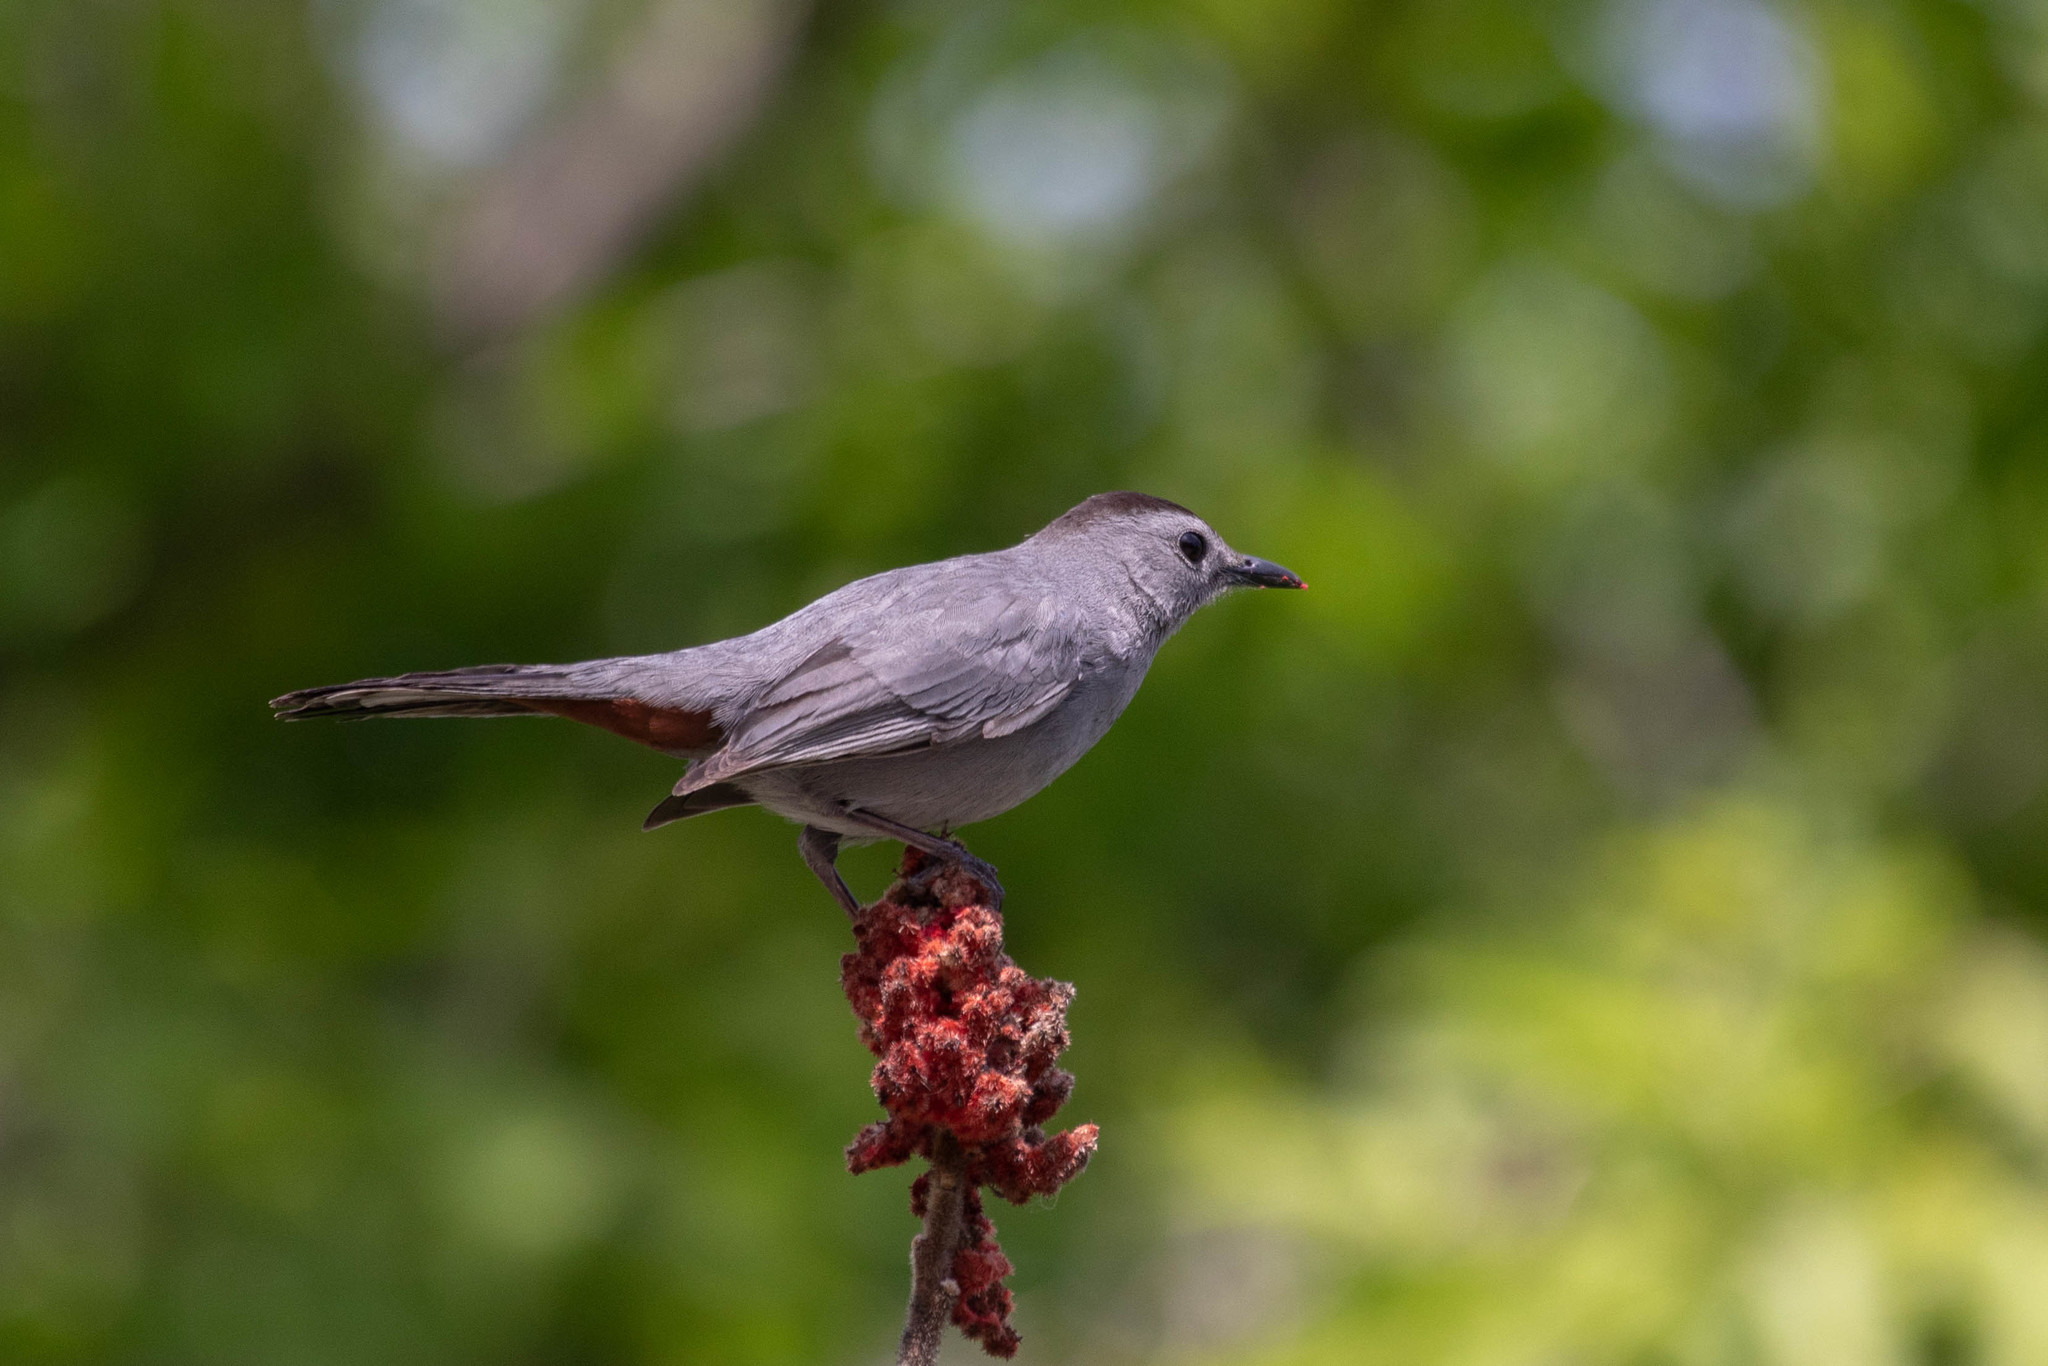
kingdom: Animalia
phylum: Chordata
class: Aves
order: Passeriformes
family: Mimidae
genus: Dumetella
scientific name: Dumetella carolinensis
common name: Gray catbird
